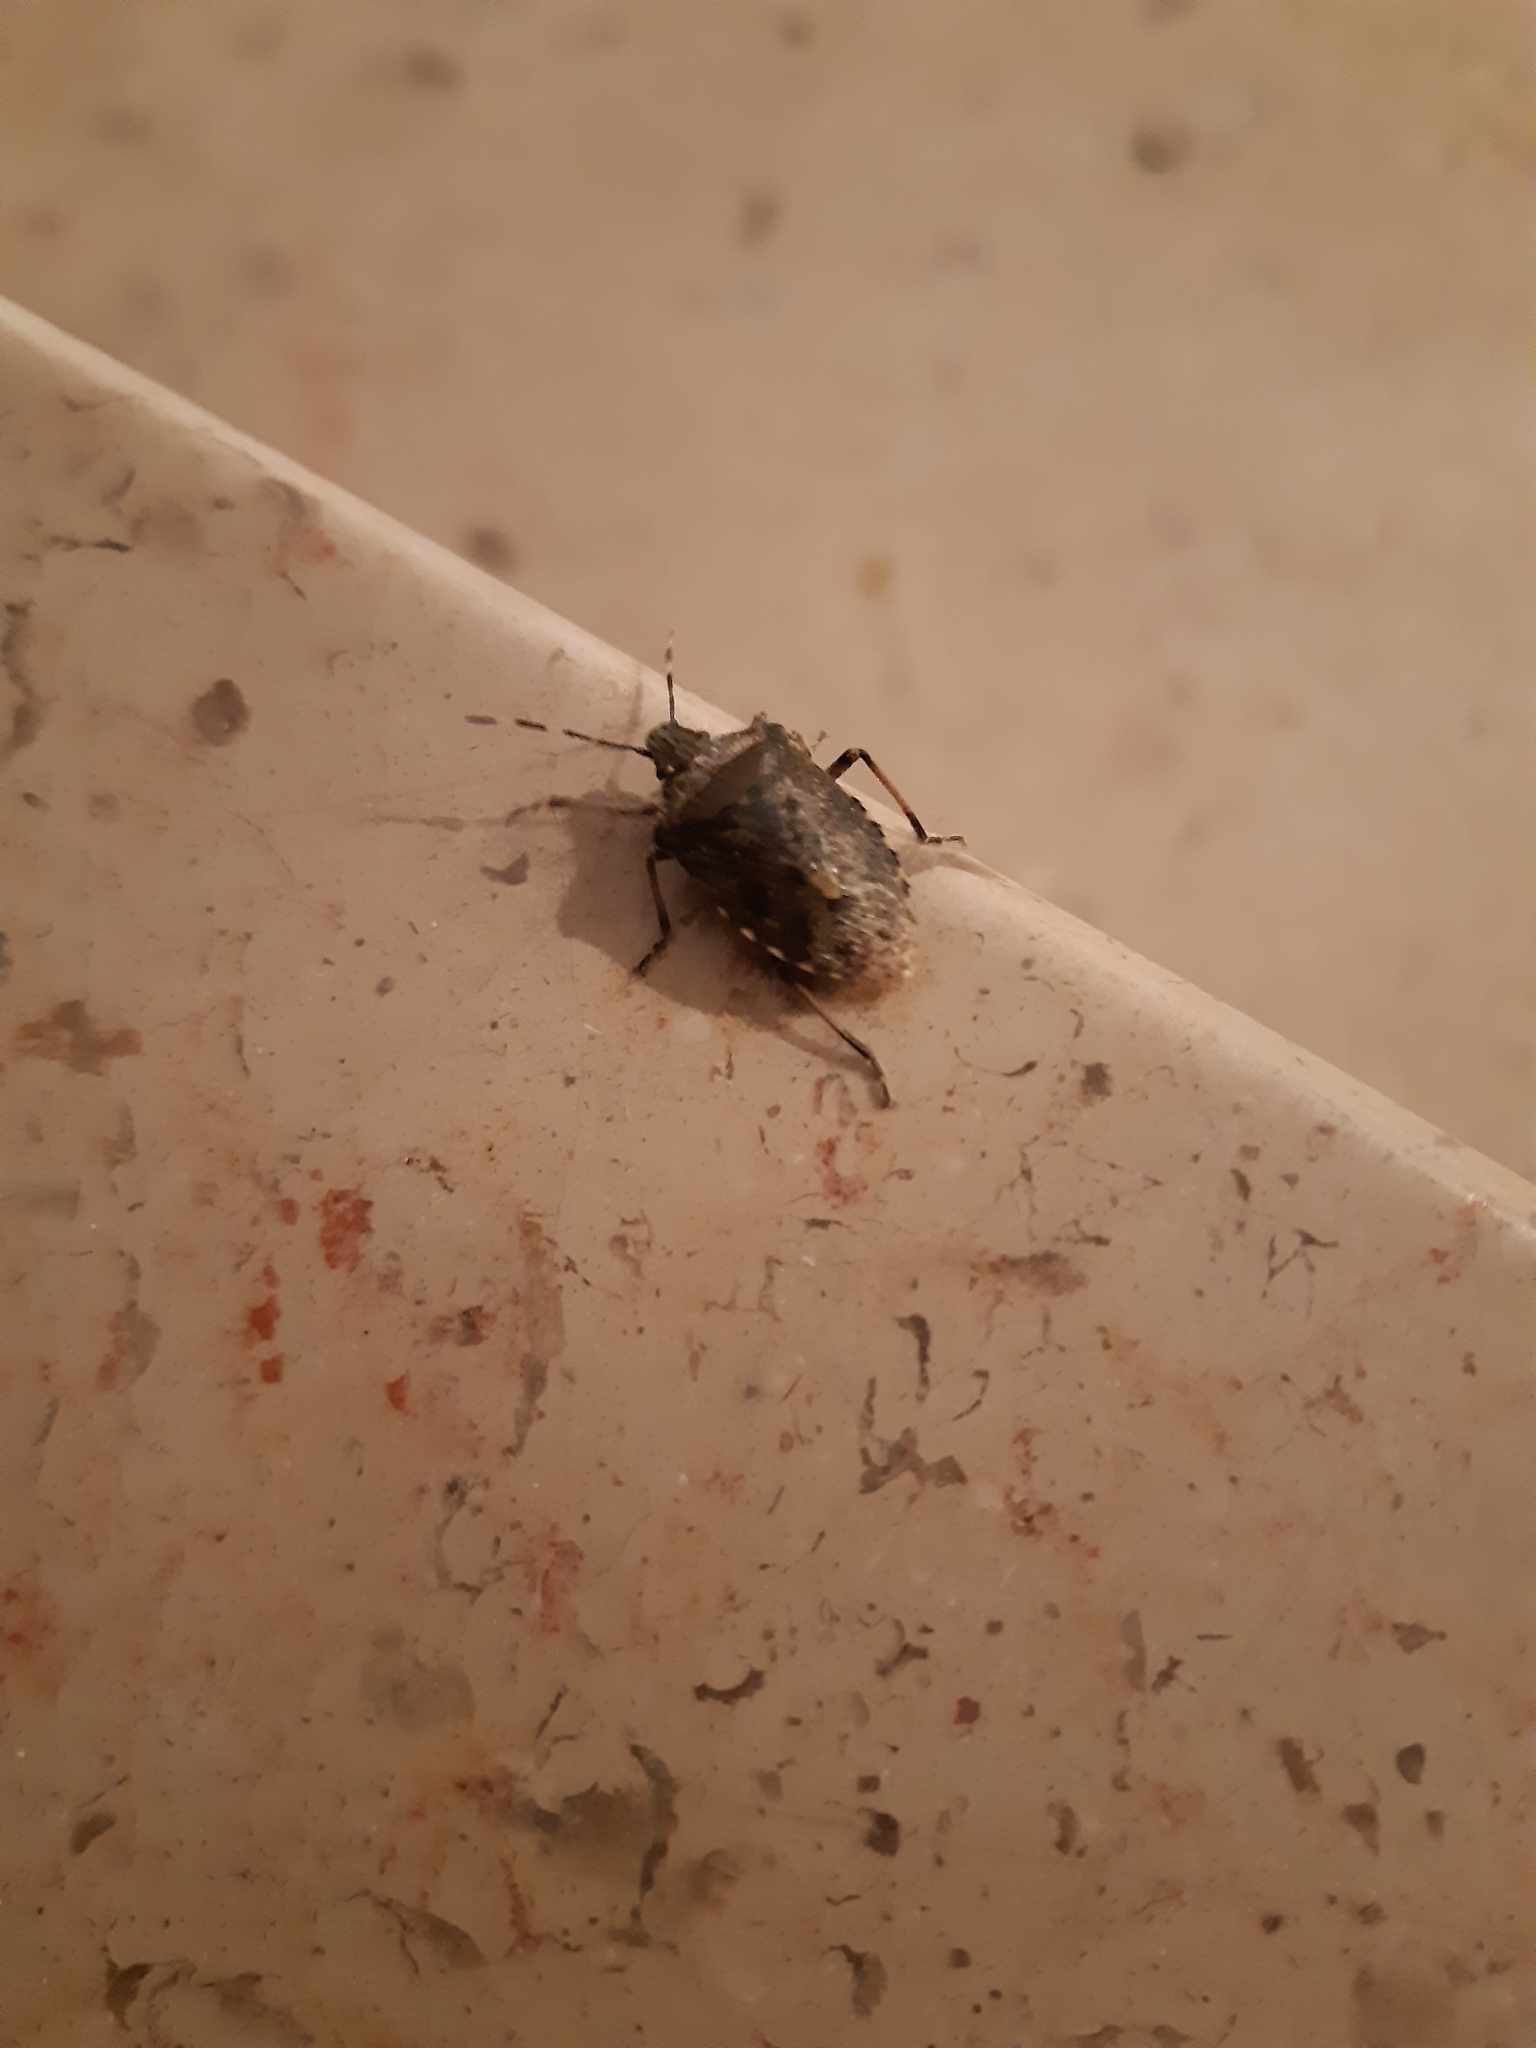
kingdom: Animalia
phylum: Arthropoda
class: Insecta
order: Hemiptera
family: Pentatomidae
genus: Rhaphigaster
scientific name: Rhaphigaster nebulosa
